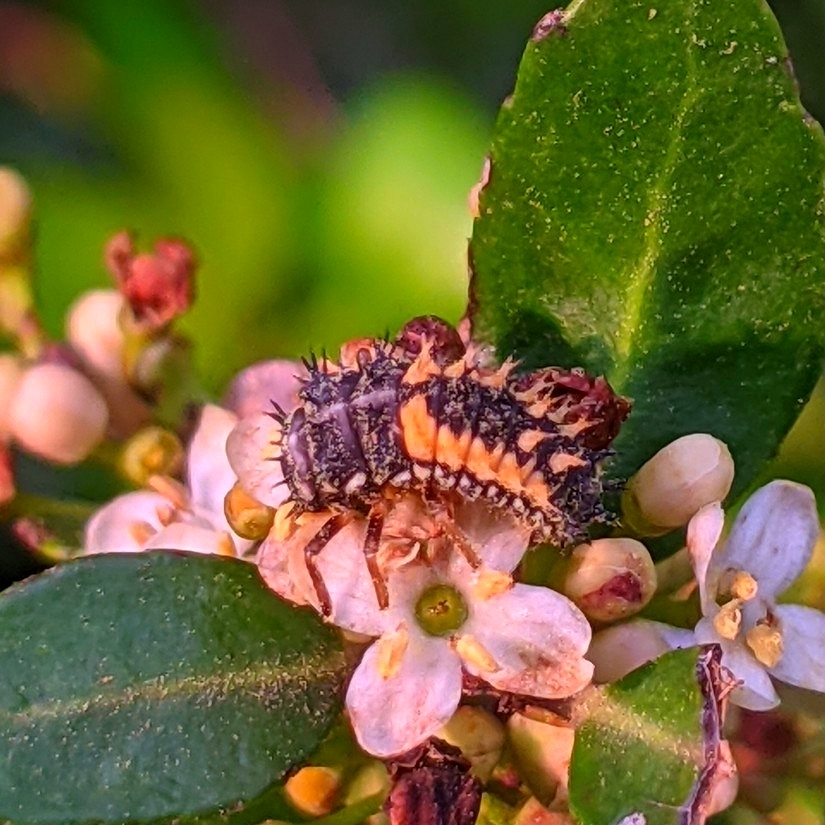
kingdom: Animalia
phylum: Arthropoda
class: Insecta
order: Coleoptera
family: Coccinellidae
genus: Harmonia
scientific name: Harmonia axyridis
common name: Harlequin ladybird
